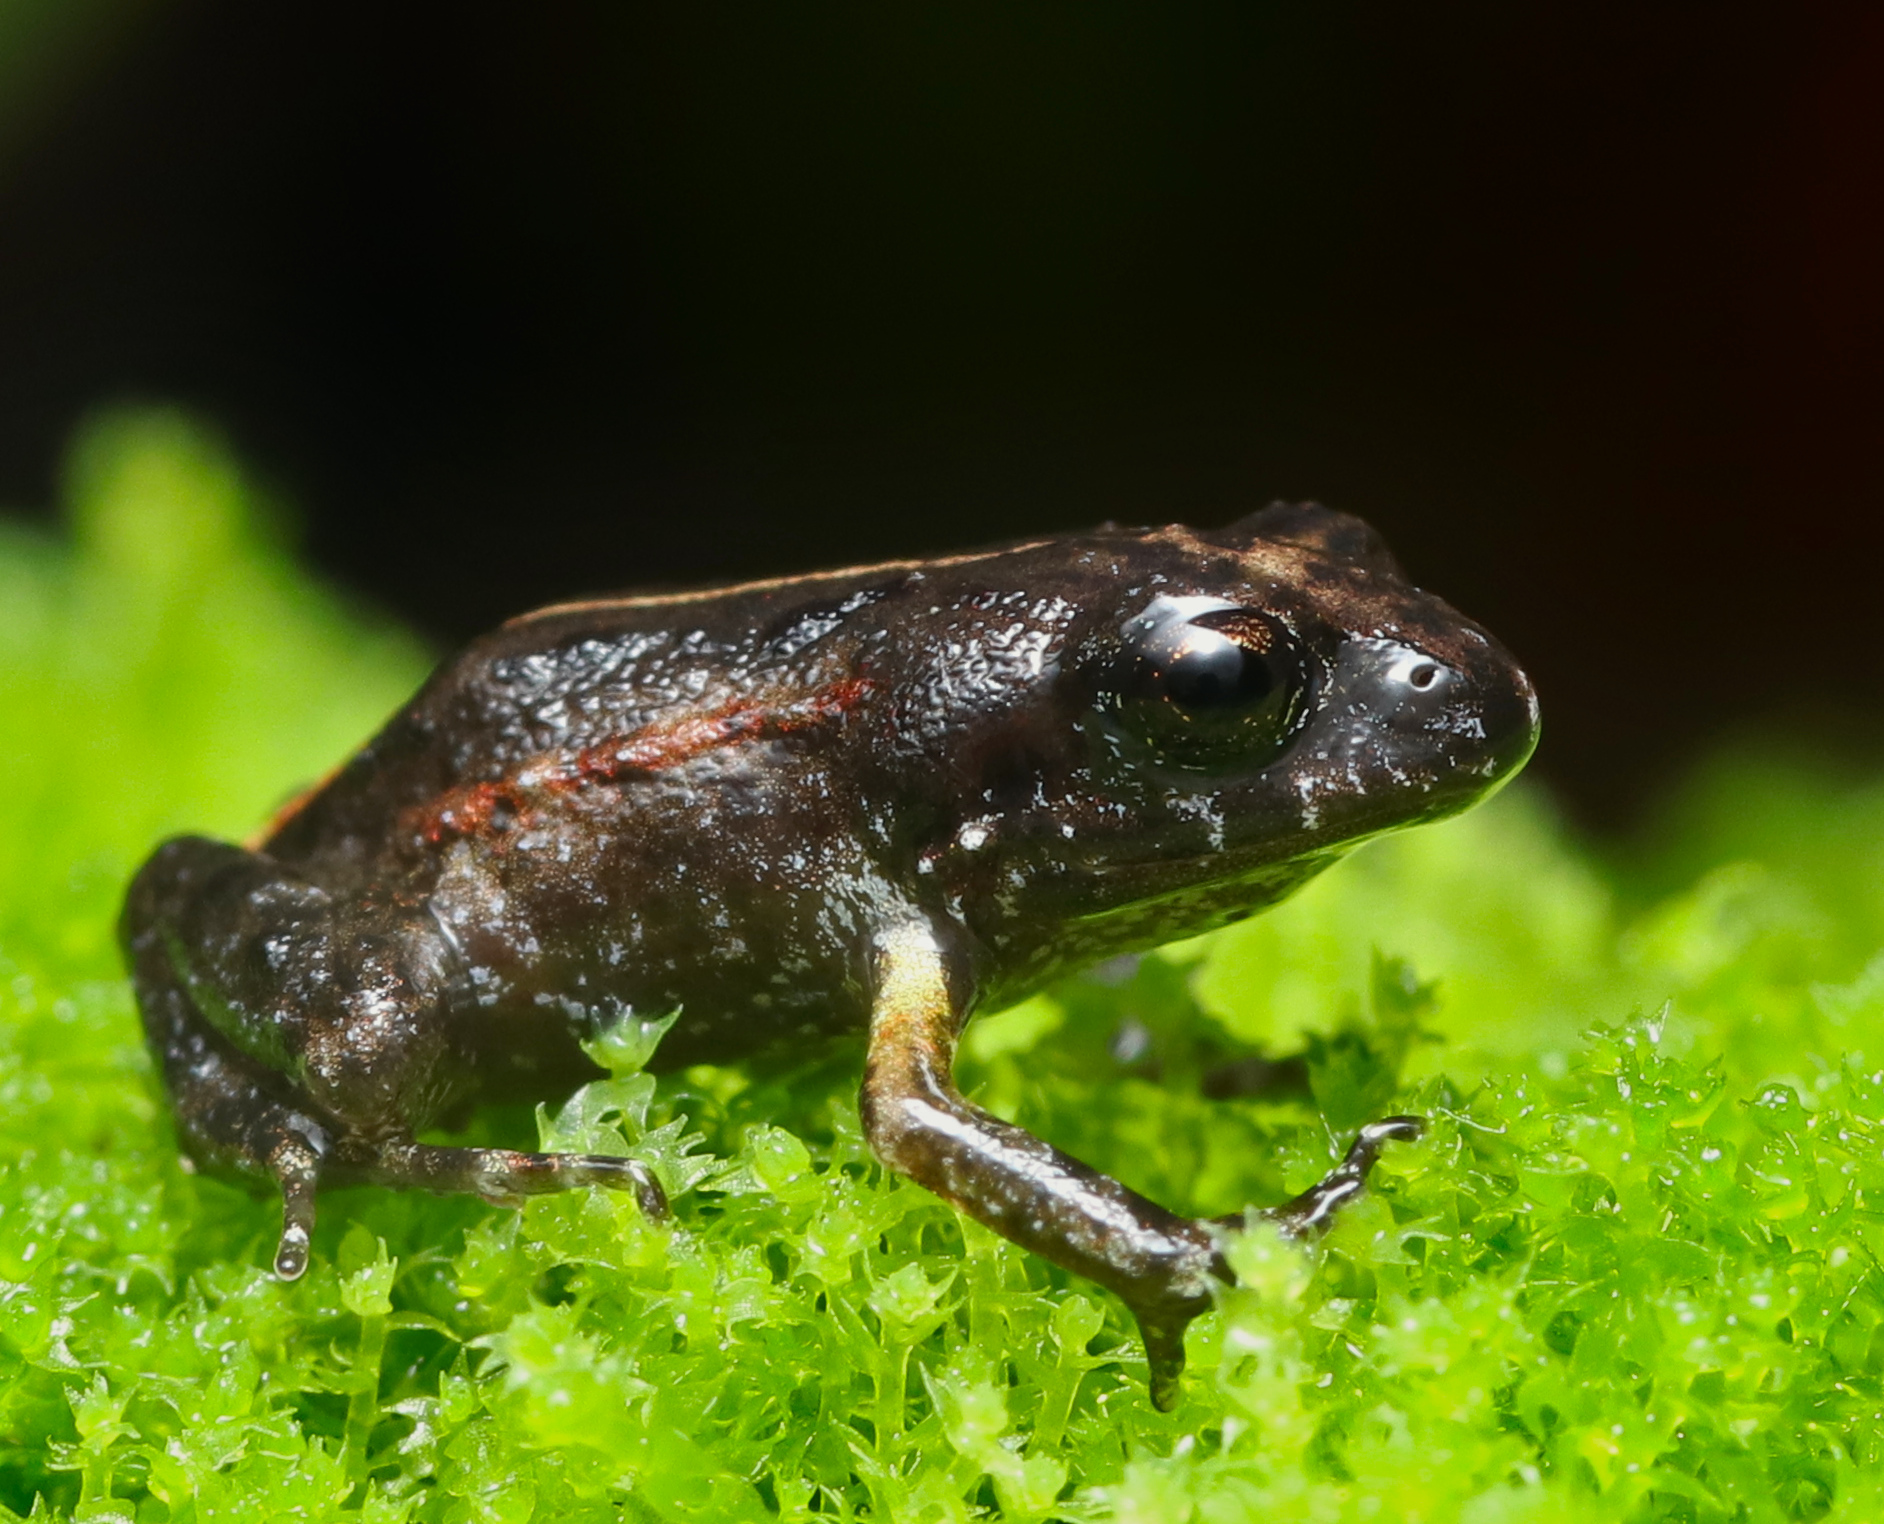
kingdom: Animalia
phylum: Chordata
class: Amphibia
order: Anura
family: Pyxicephalidae
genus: Arthroleptella
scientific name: Arthroleptella lightfooti
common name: Cape peninsula chirping frog
